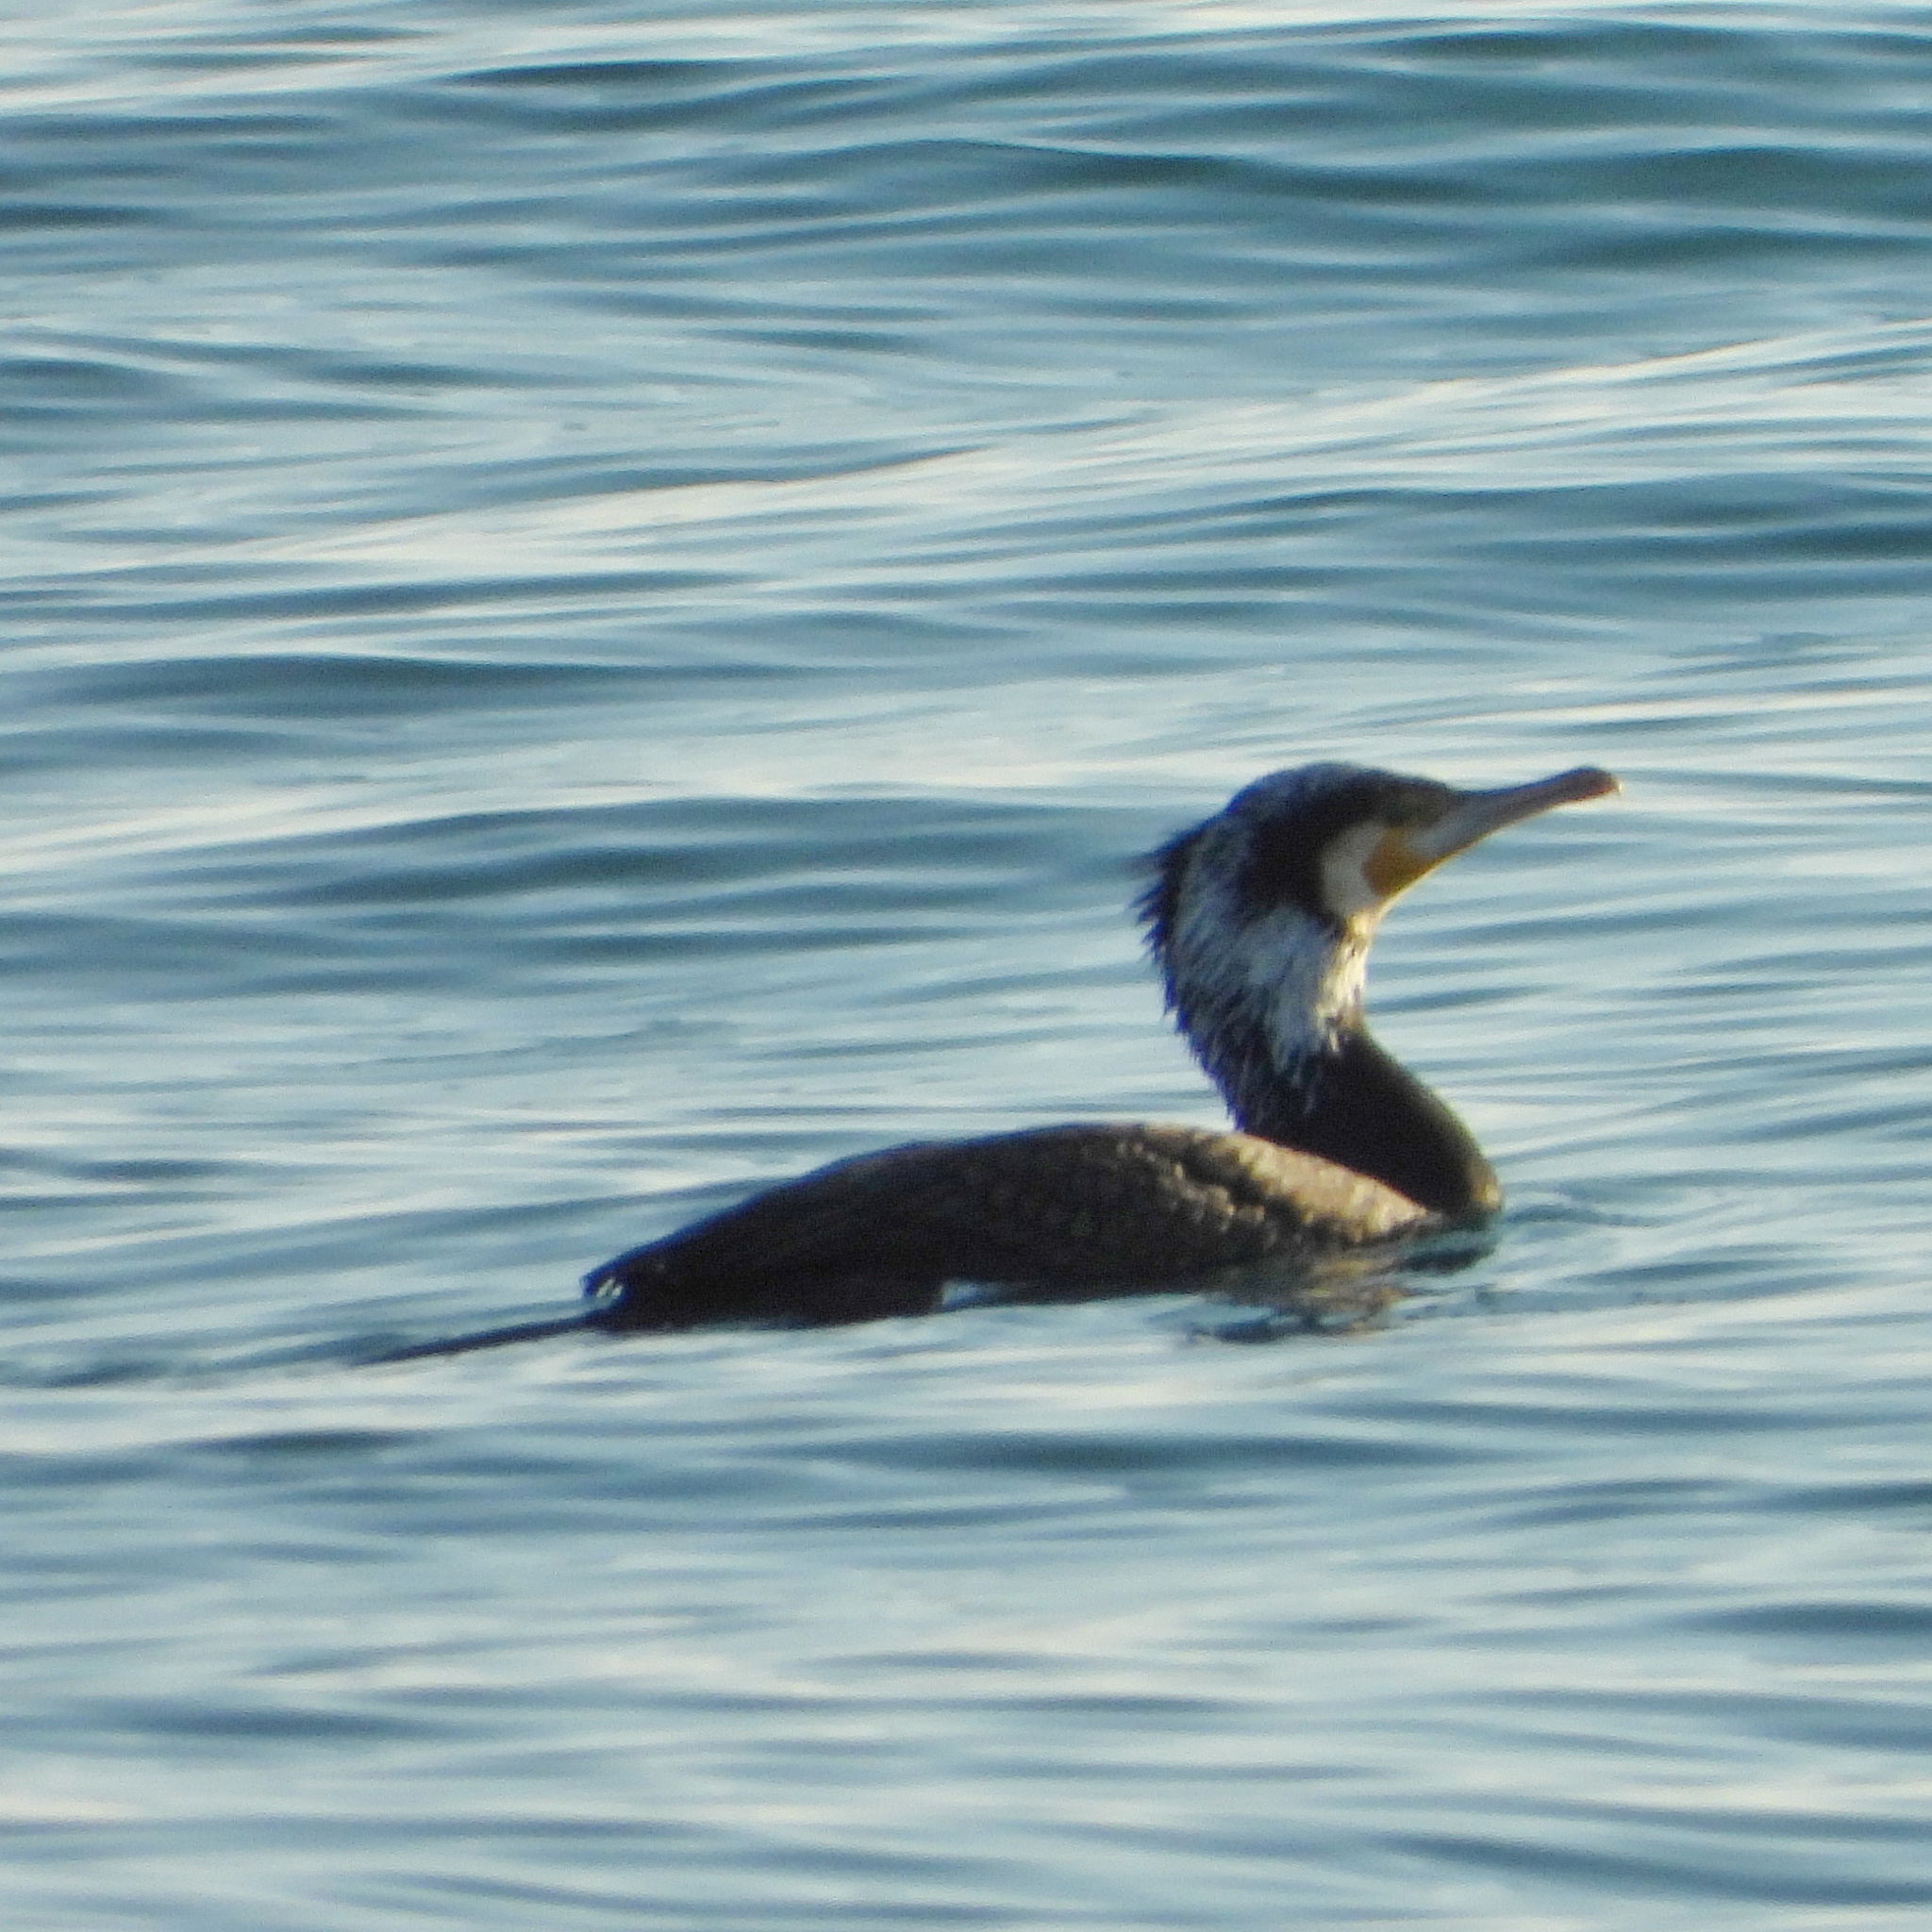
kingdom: Animalia
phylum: Chordata
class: Aves
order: Suliformes
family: Phalacrocoracidae
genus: Phalacrocorax
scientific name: Phalacrocorax carbo
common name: Great cormorant
